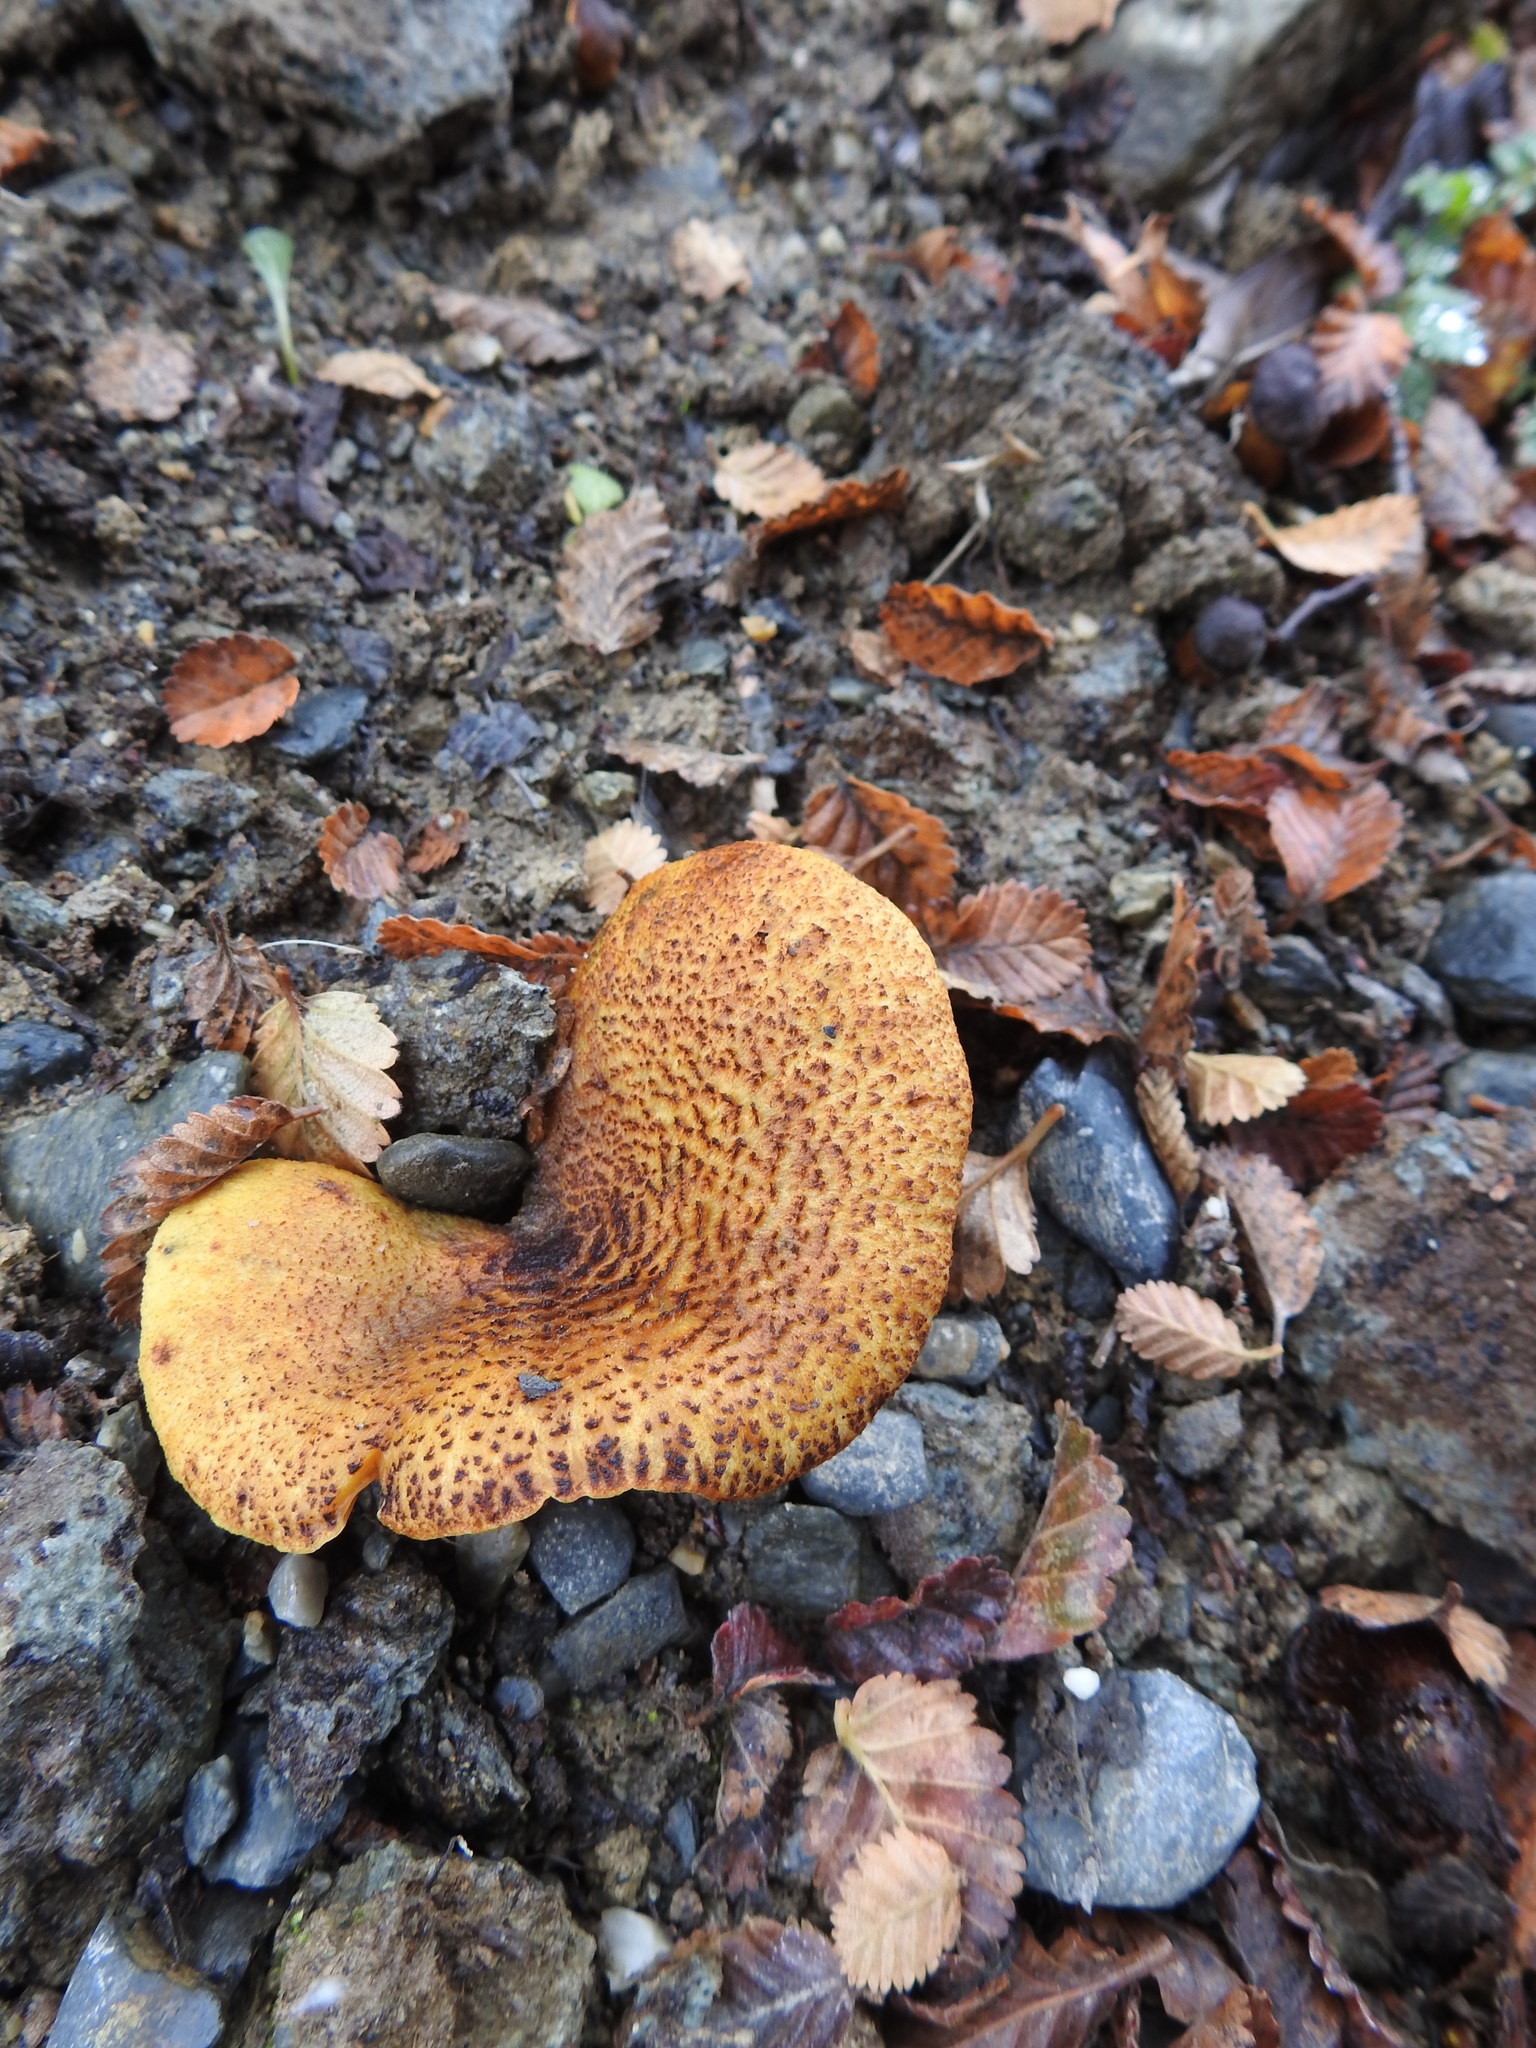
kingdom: Fungi
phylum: Basidiomycota
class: Agaricomycetes
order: Boletales
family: Serpulaceae
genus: Austropaxillus
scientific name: Austropaxillus statuum
